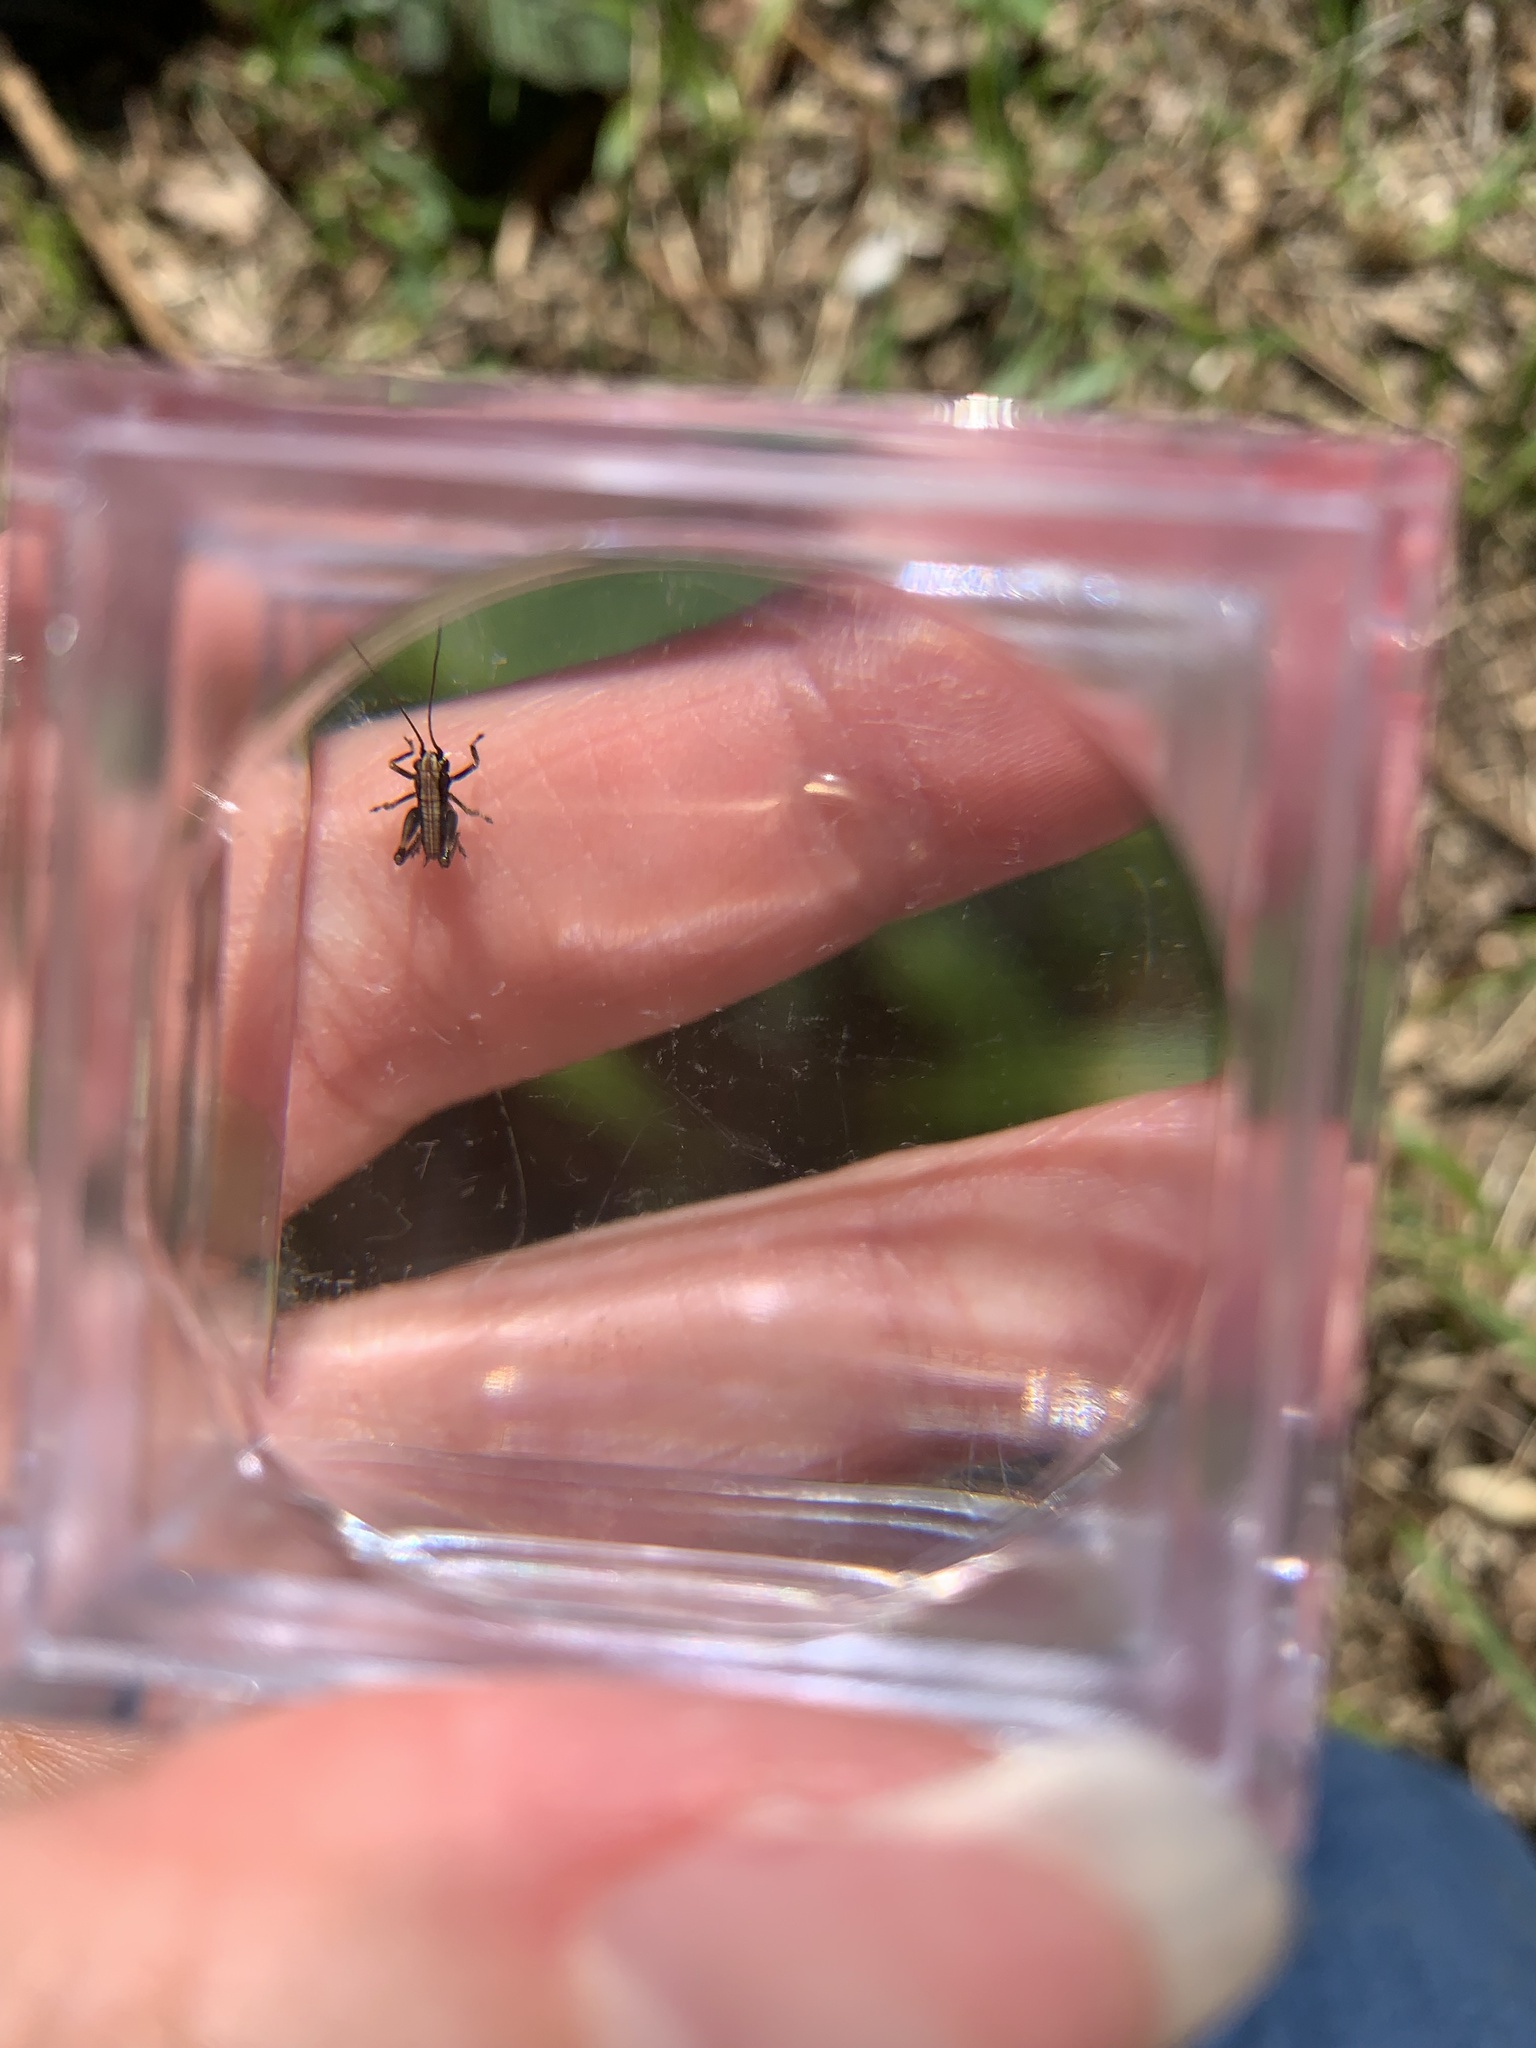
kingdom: Animalia
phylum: Arthropoda
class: Insecta
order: Orthoptera
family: Tettigoniidae
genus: Pholidoptera
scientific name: Pholidoptera griseoaptera
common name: Dark bush-cricket
